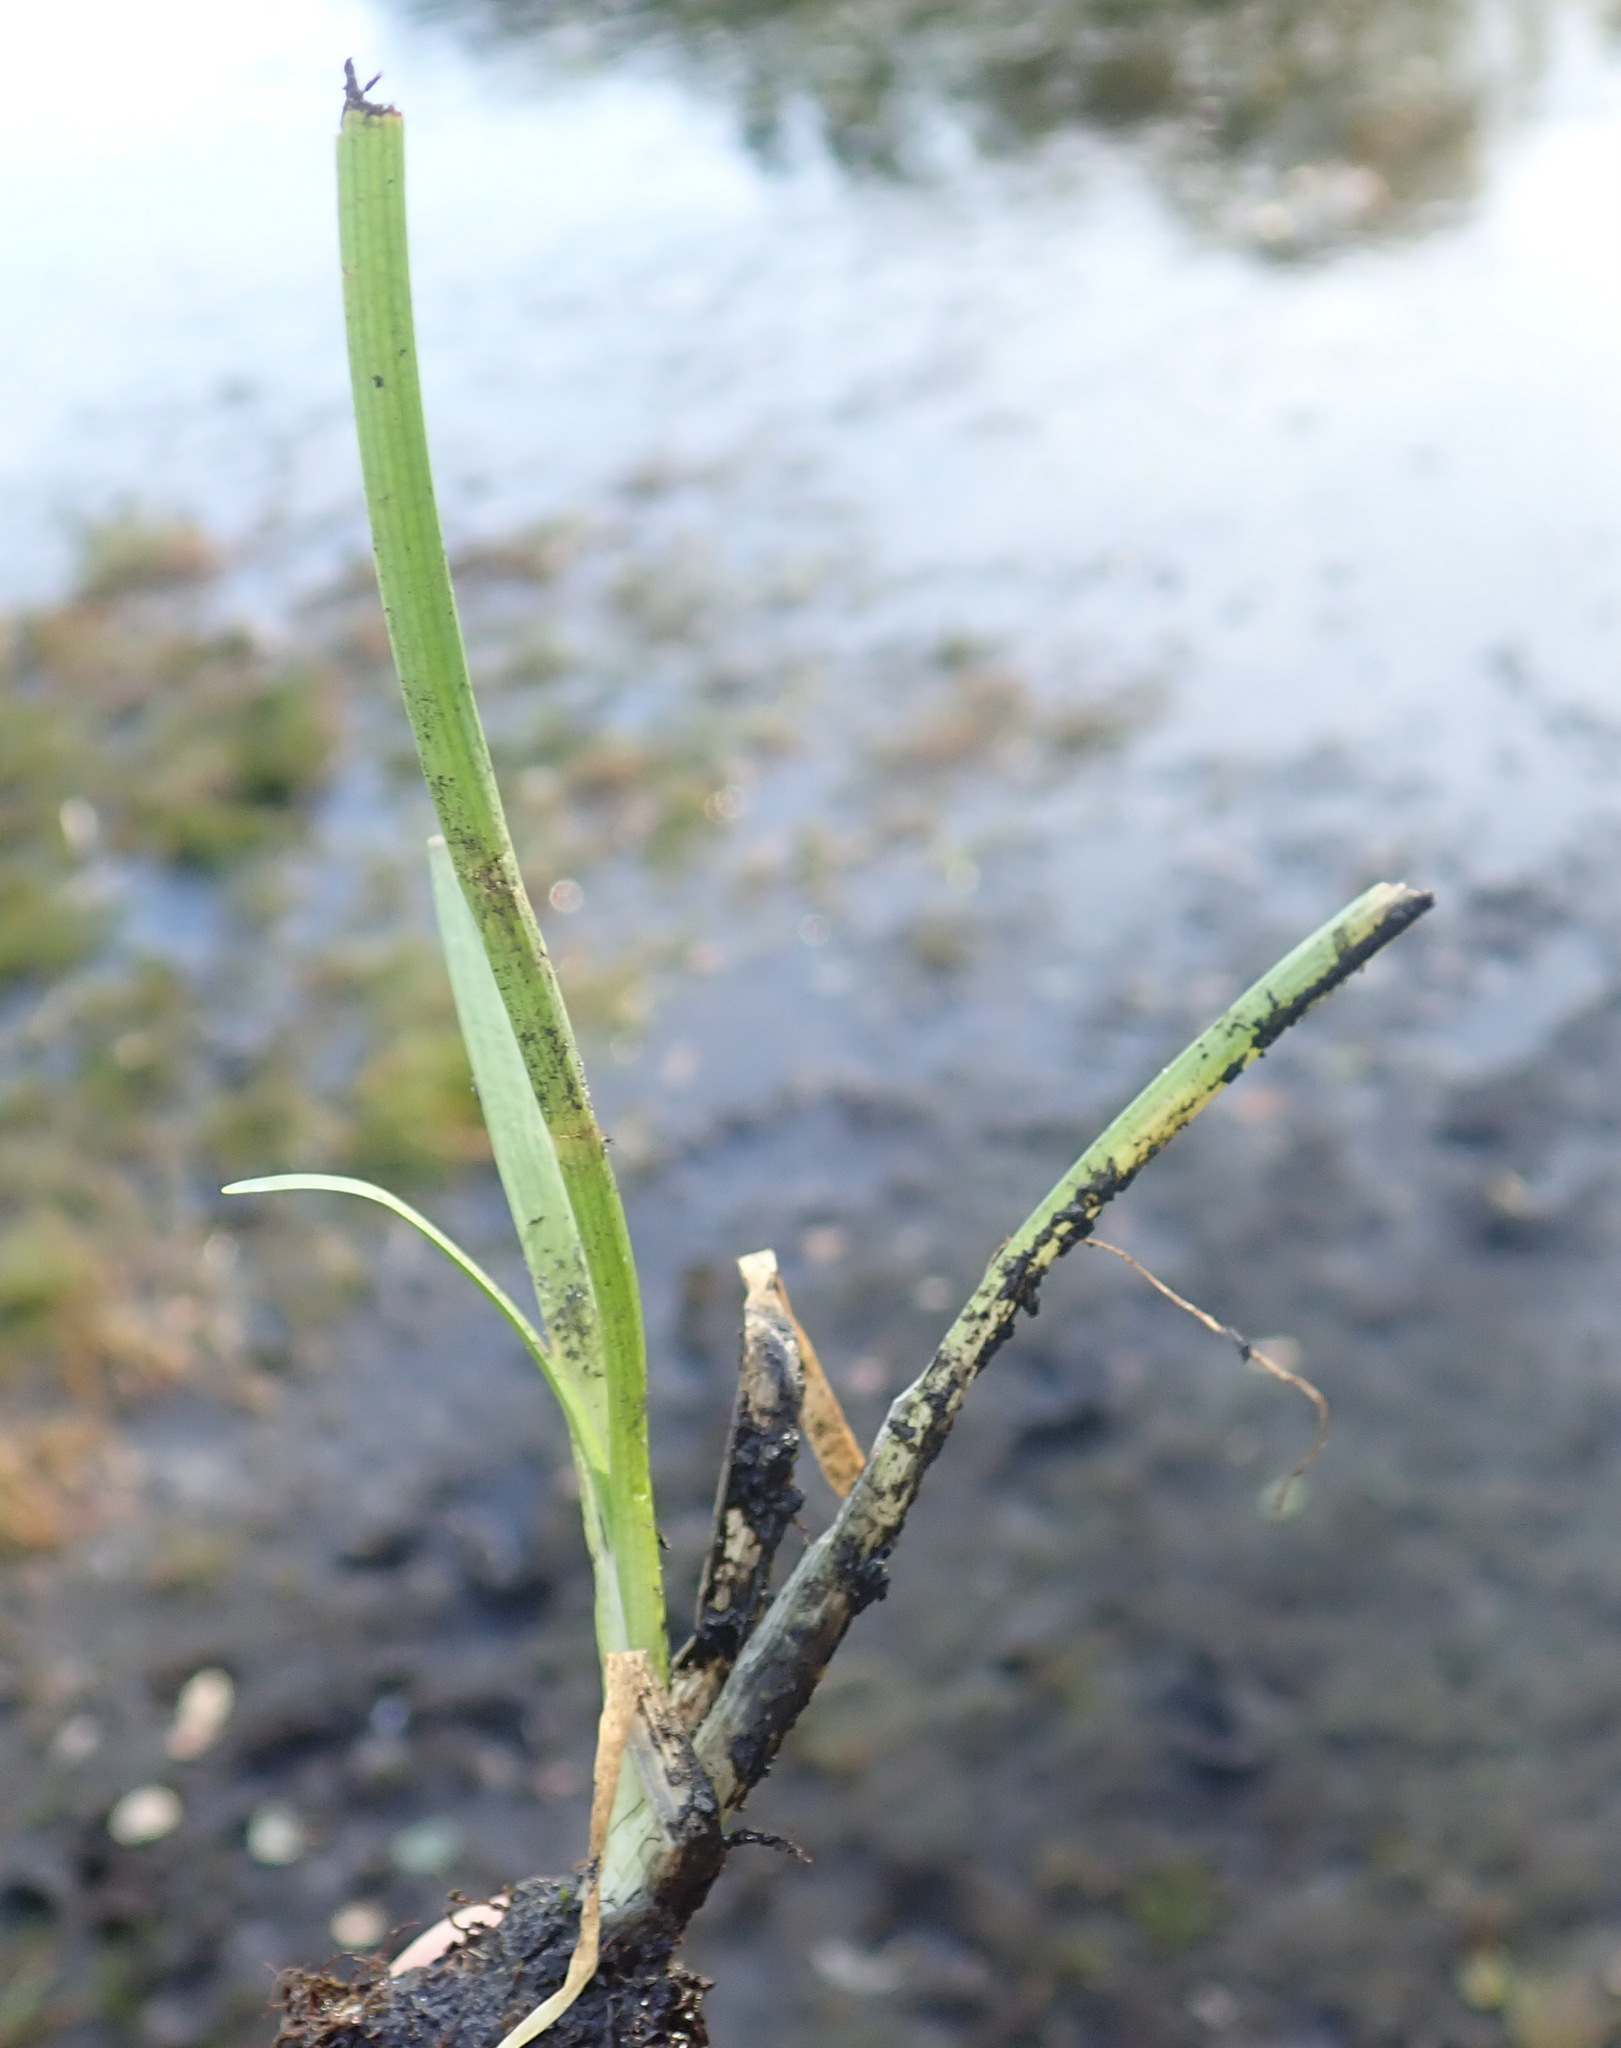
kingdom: Plantae
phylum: Tracheophyta
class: Liliopsida
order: Poales
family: Typhaceae
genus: Sparganium
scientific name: Sparganium natans
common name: Least bur-reed
